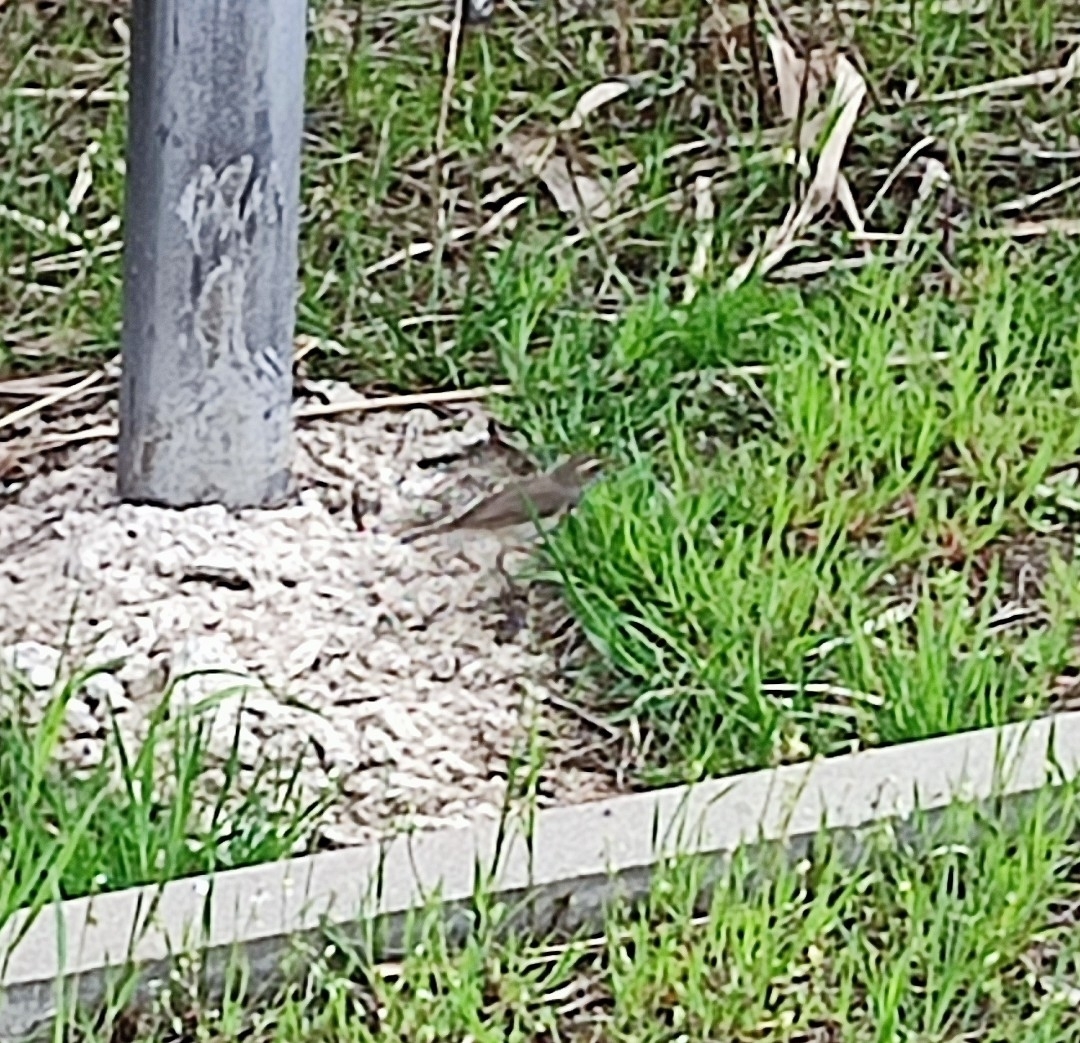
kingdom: Animalia
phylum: Chordata
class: Aves
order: Passeriformes
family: Muscicapidae
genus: Luscinia
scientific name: Luscinia svecica
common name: Bluethroat
